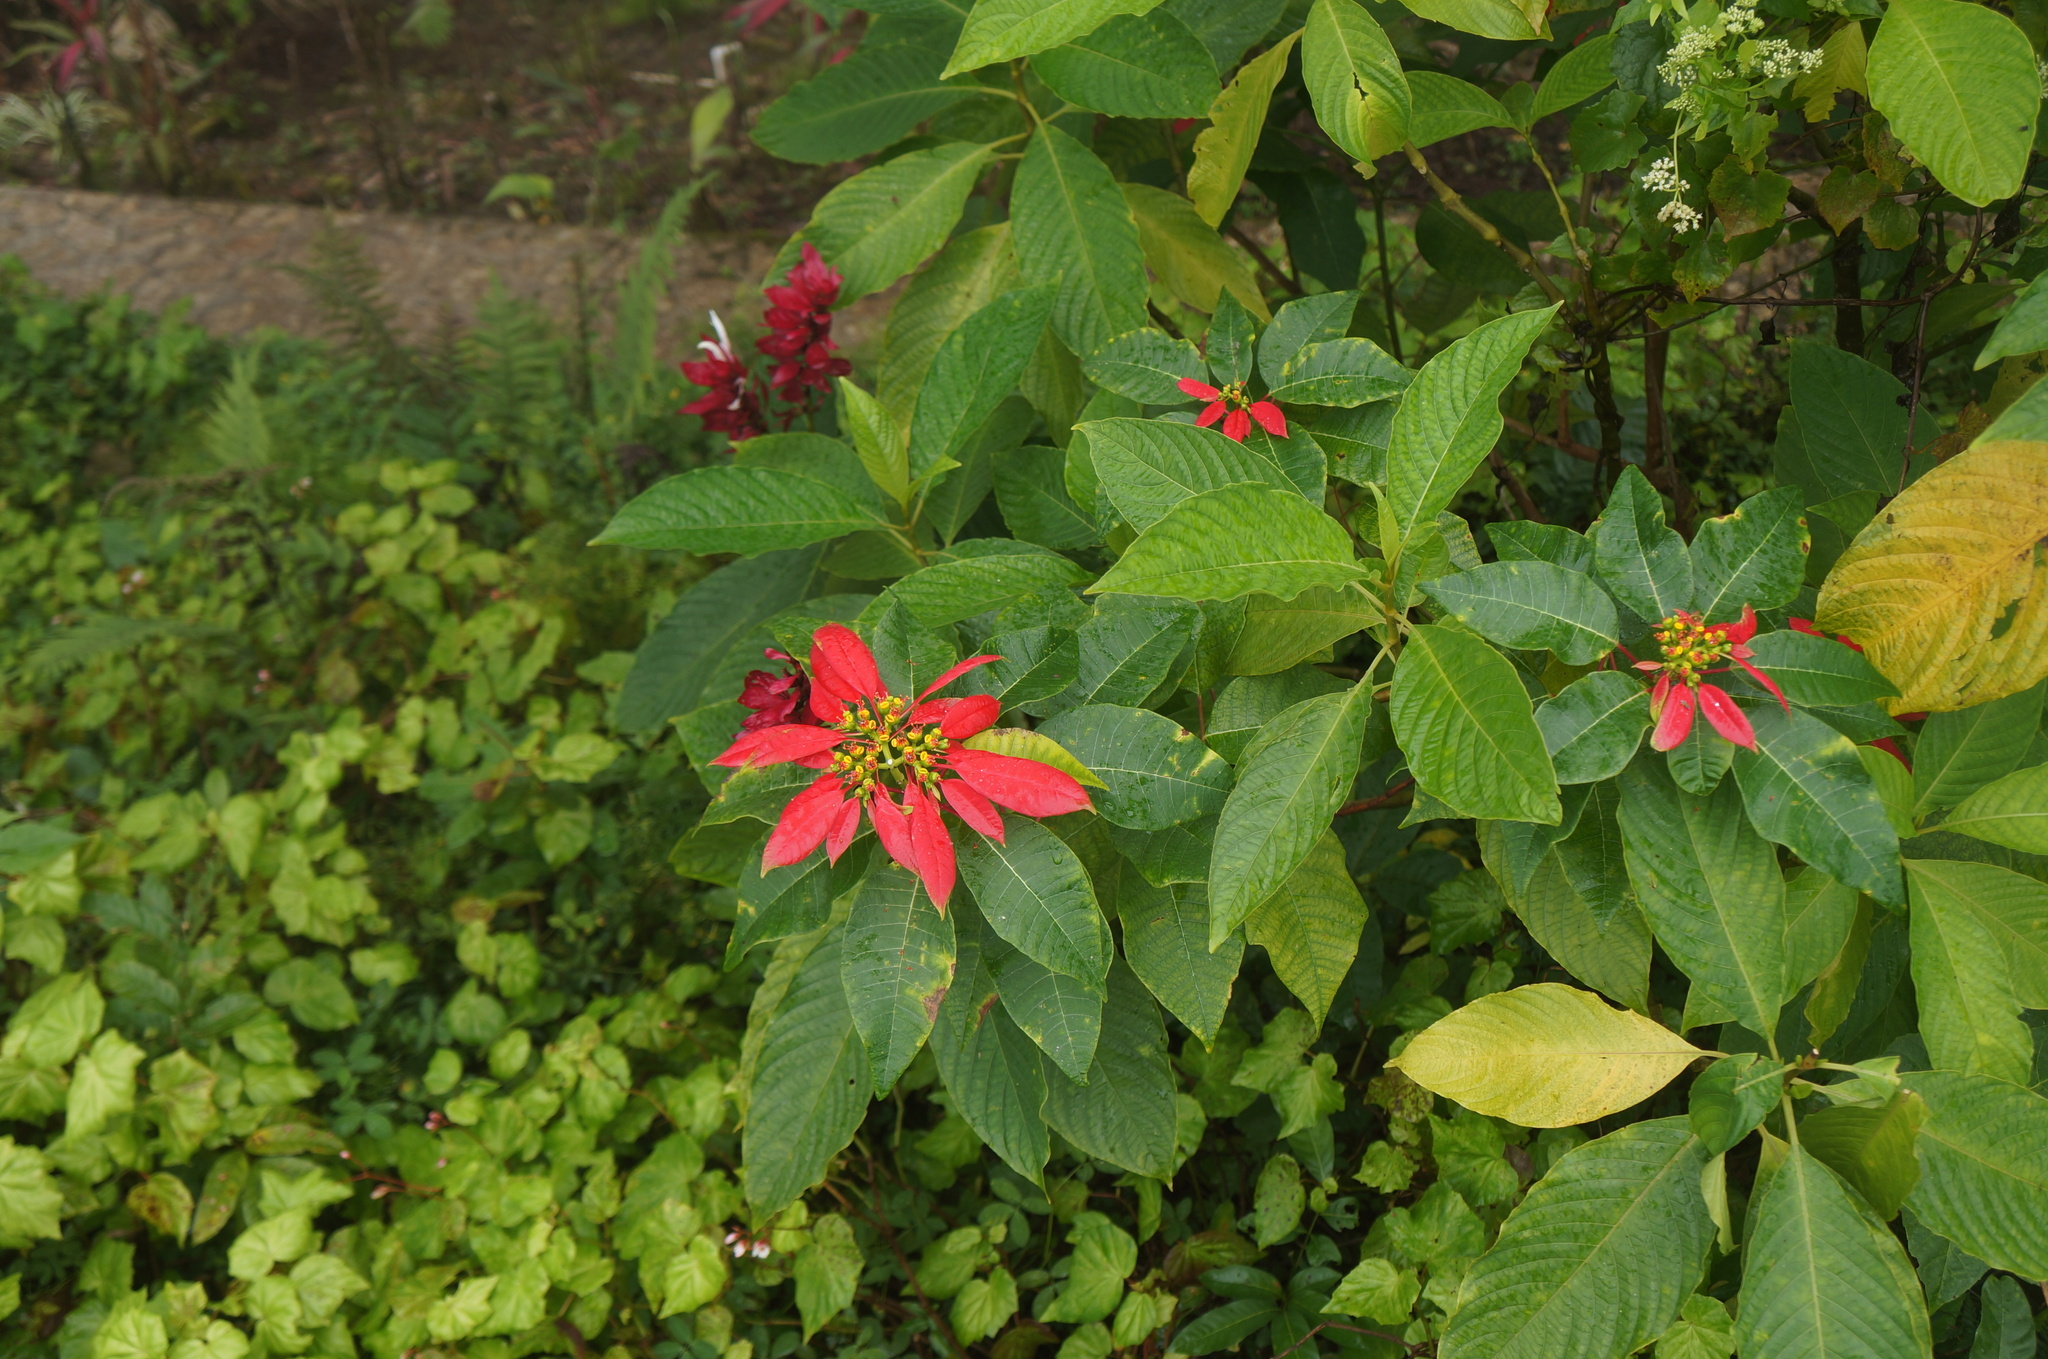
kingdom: Plantae
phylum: Tracheophyta
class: Magnoliopsida
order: Malpighiales
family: Euphorbiaceae
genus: Euphorbia
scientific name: Euphorbia pulcherrima
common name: Christmas-flower
